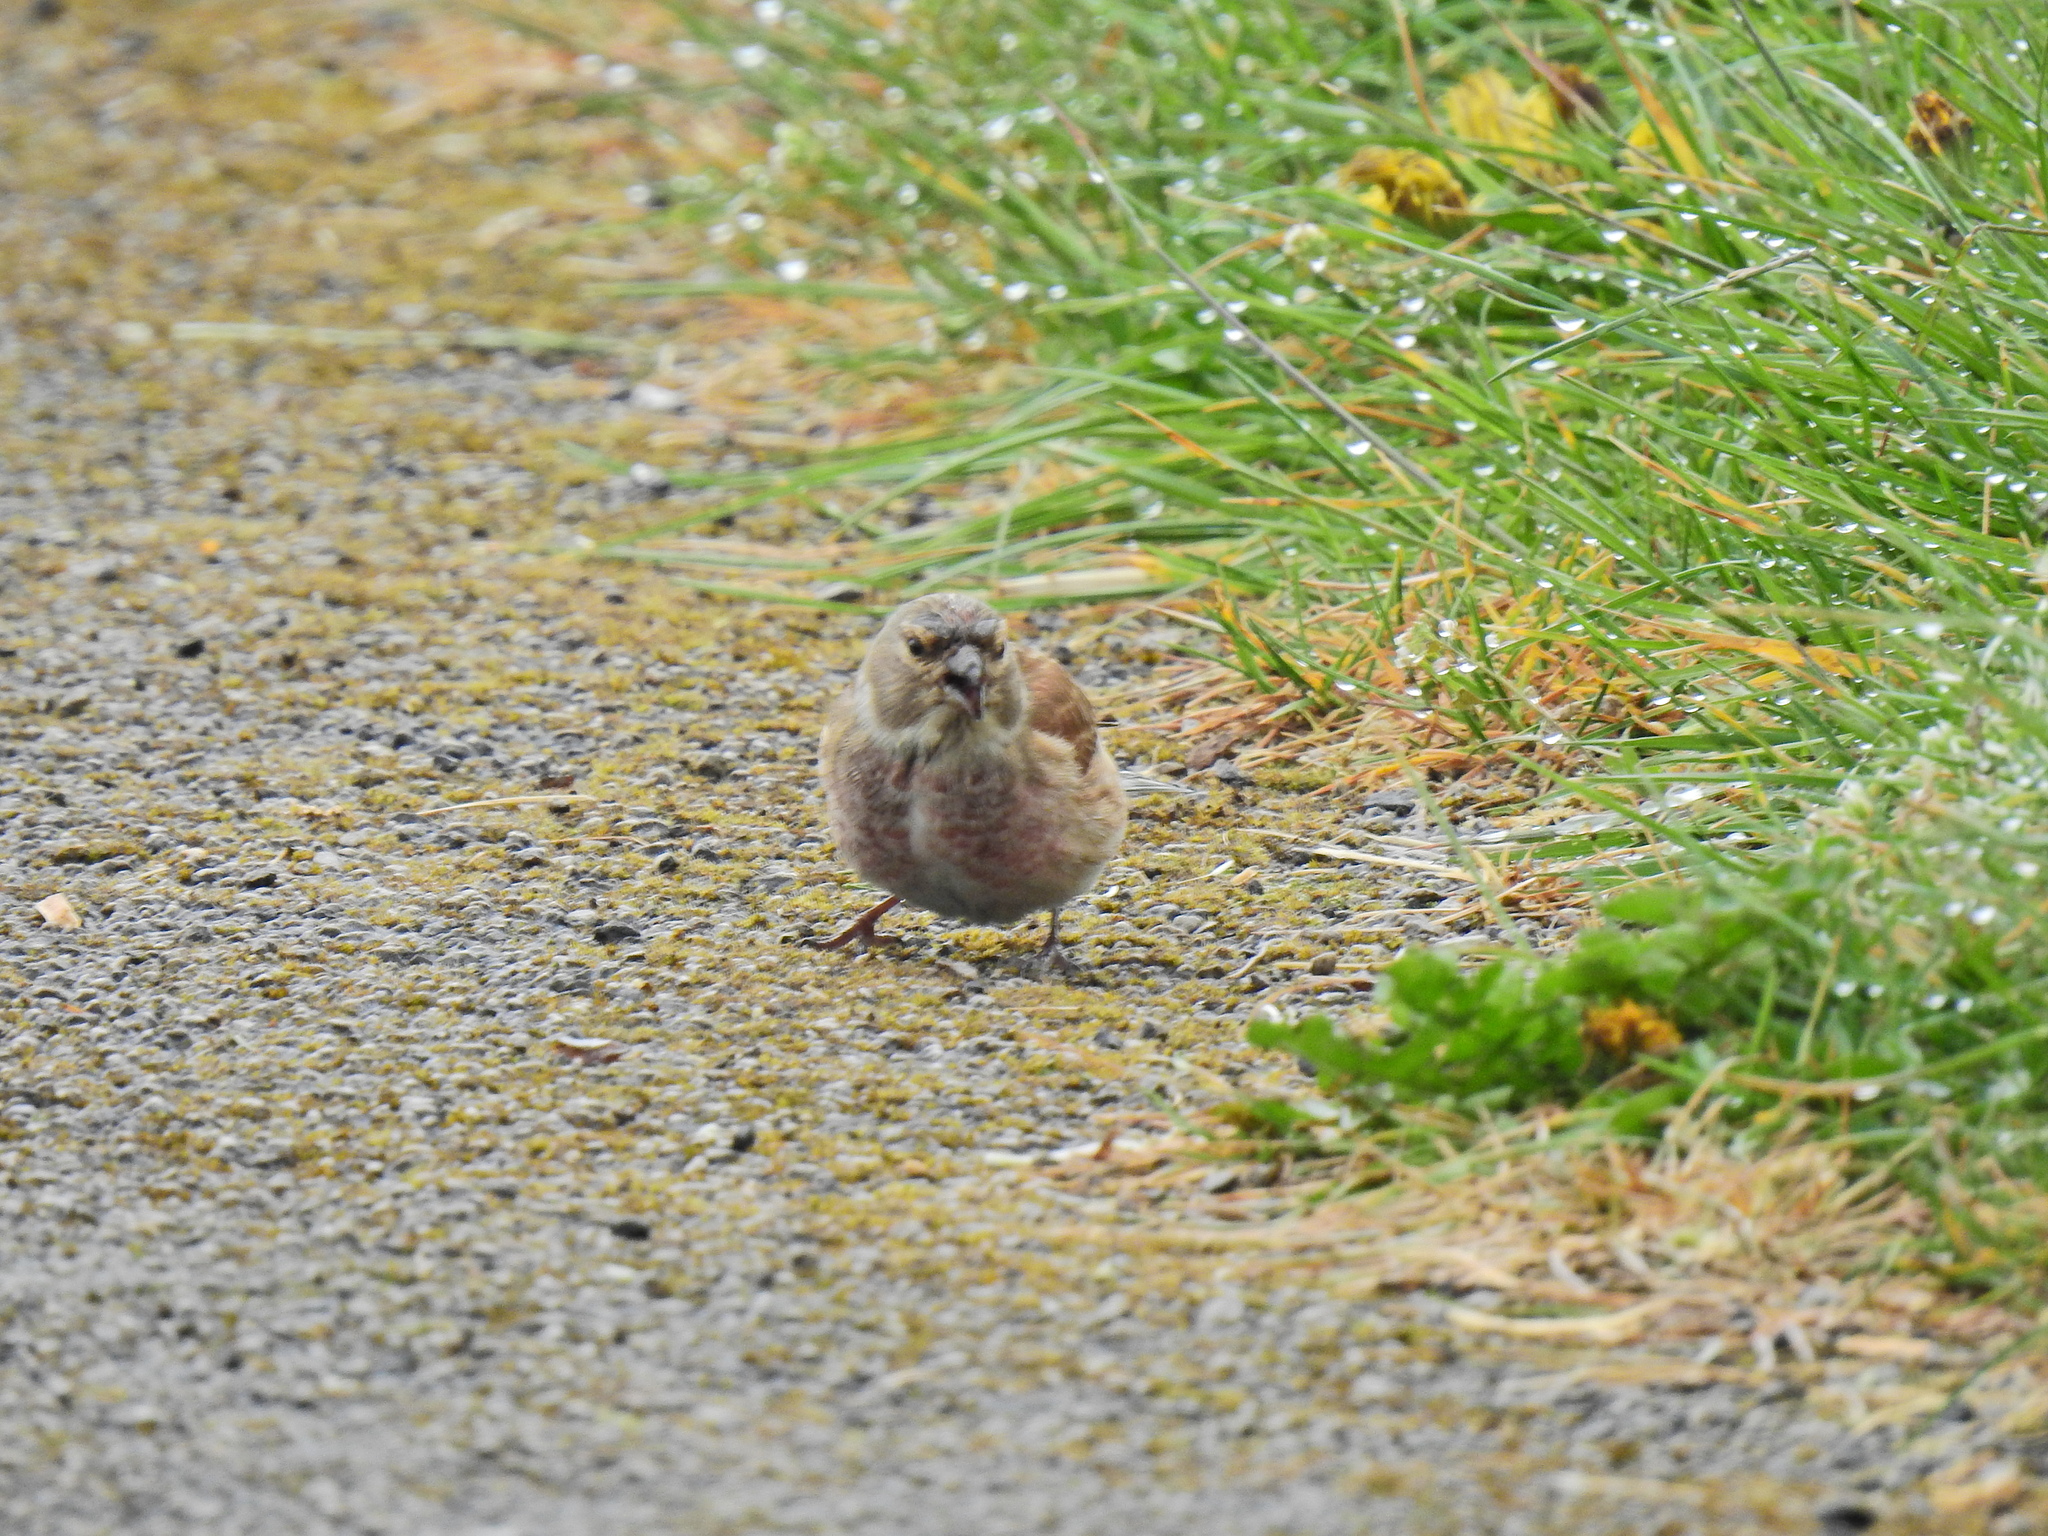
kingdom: Animalia
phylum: Chordata
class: Aves
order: Passeriformes
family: Fringillidae
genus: Linaria
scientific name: Linaria cannabina
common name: Common linnet
